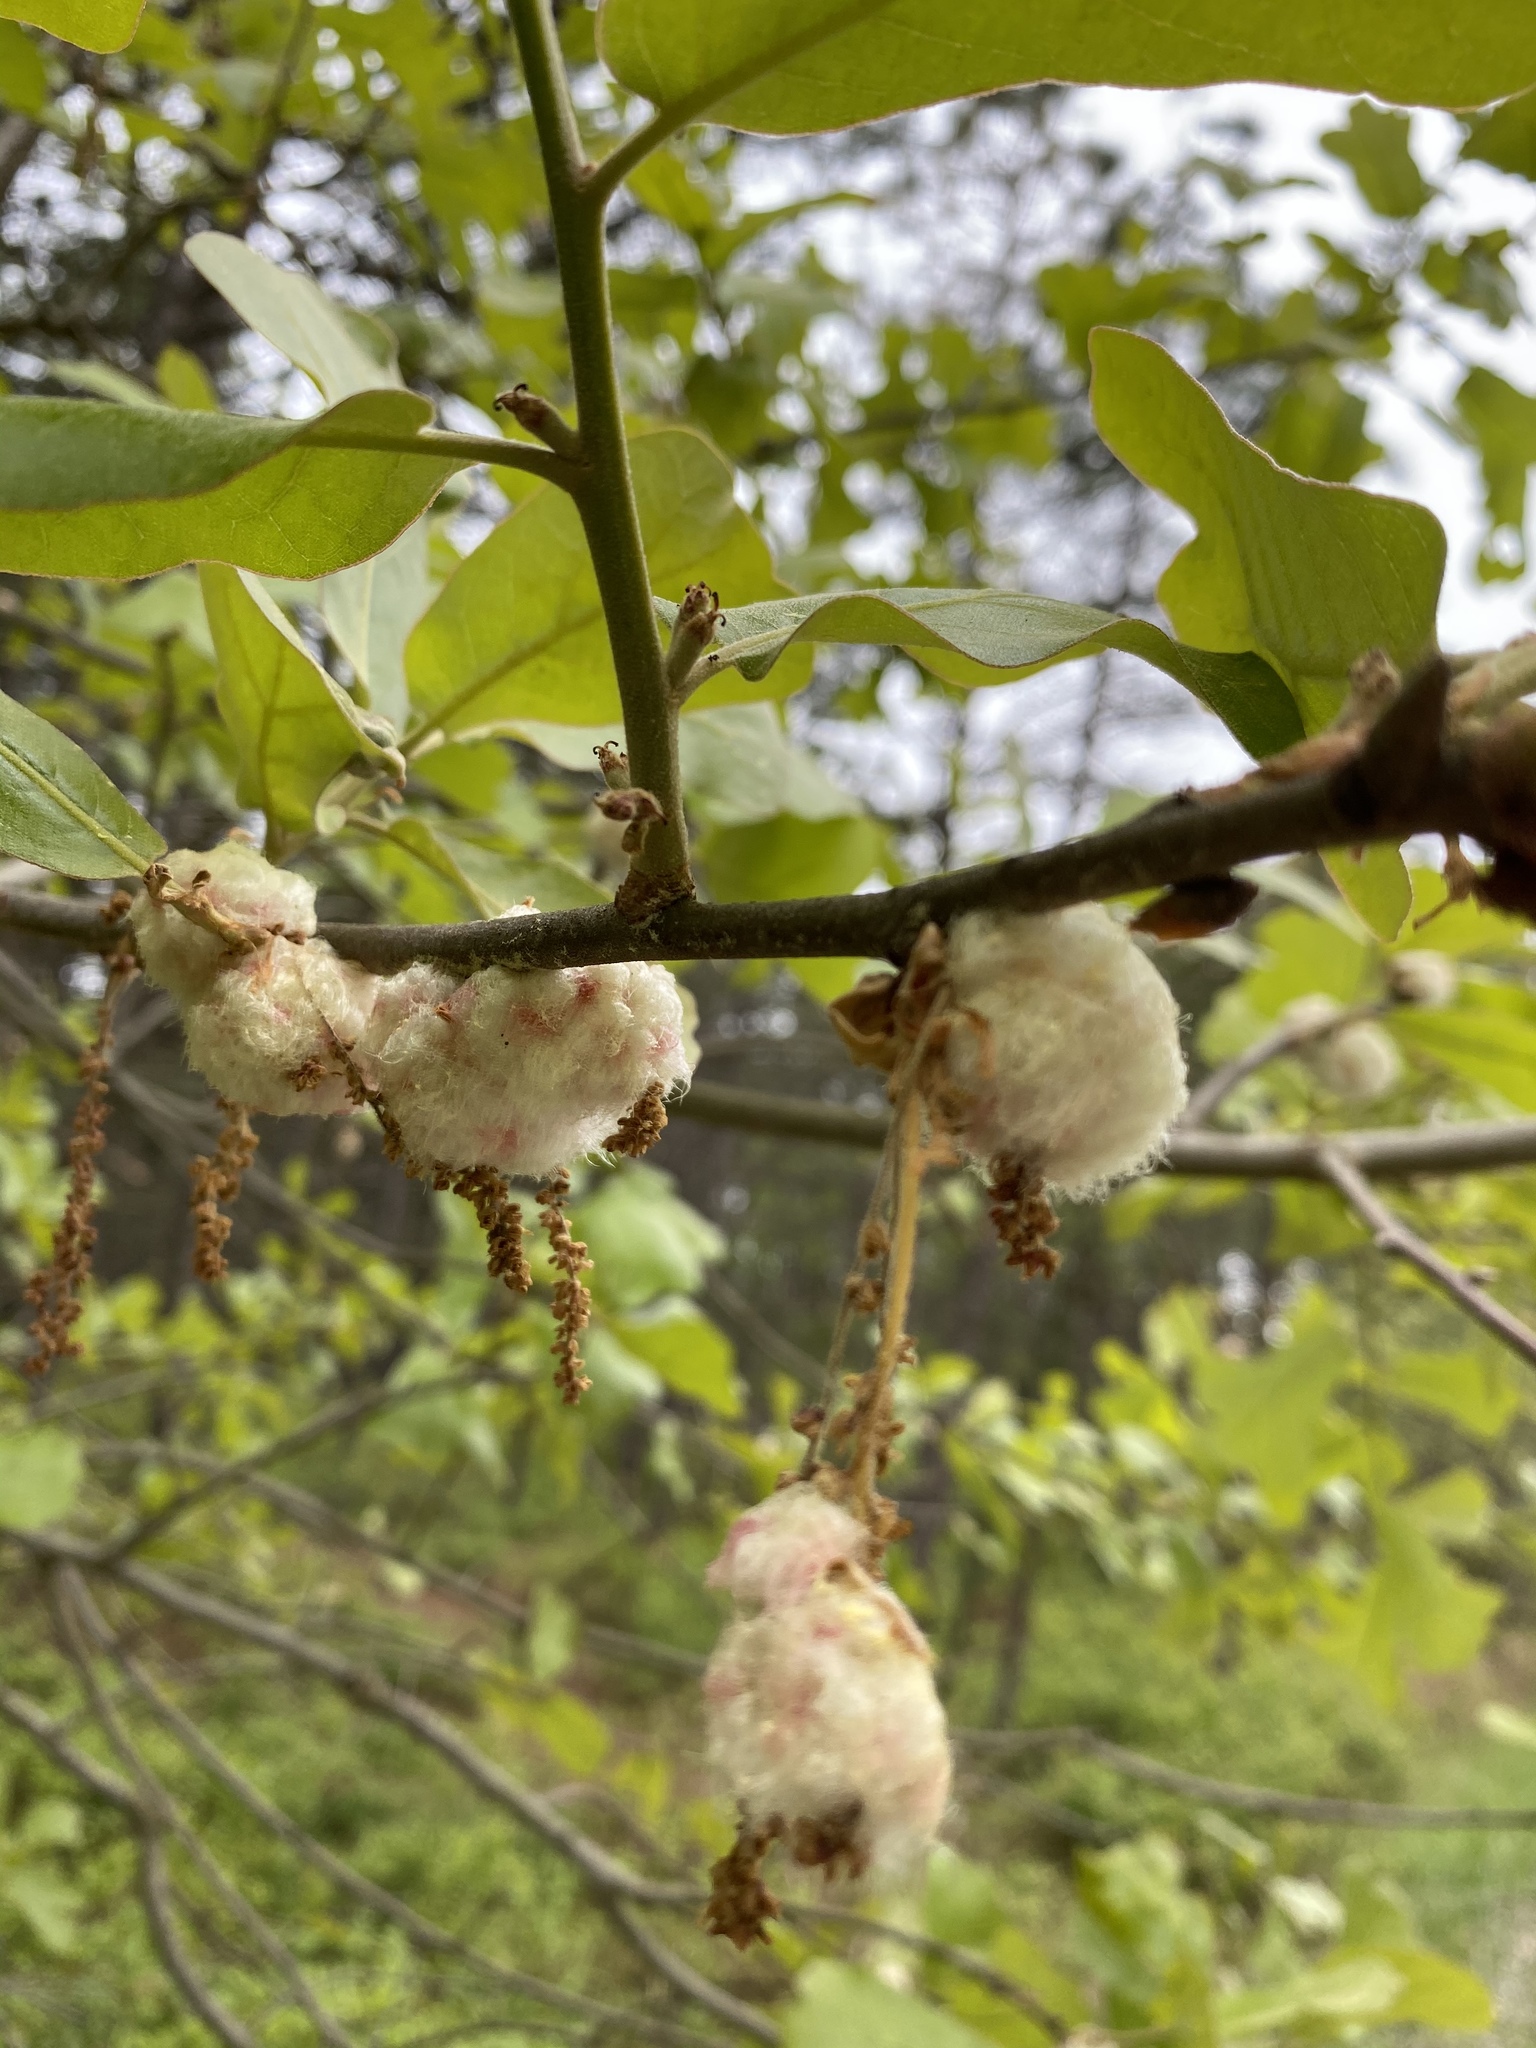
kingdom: Animalia
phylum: Arthropoda
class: Insecta
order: Hymenoptera
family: Cynipidae
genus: Callirhytis
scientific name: Callirhytis
